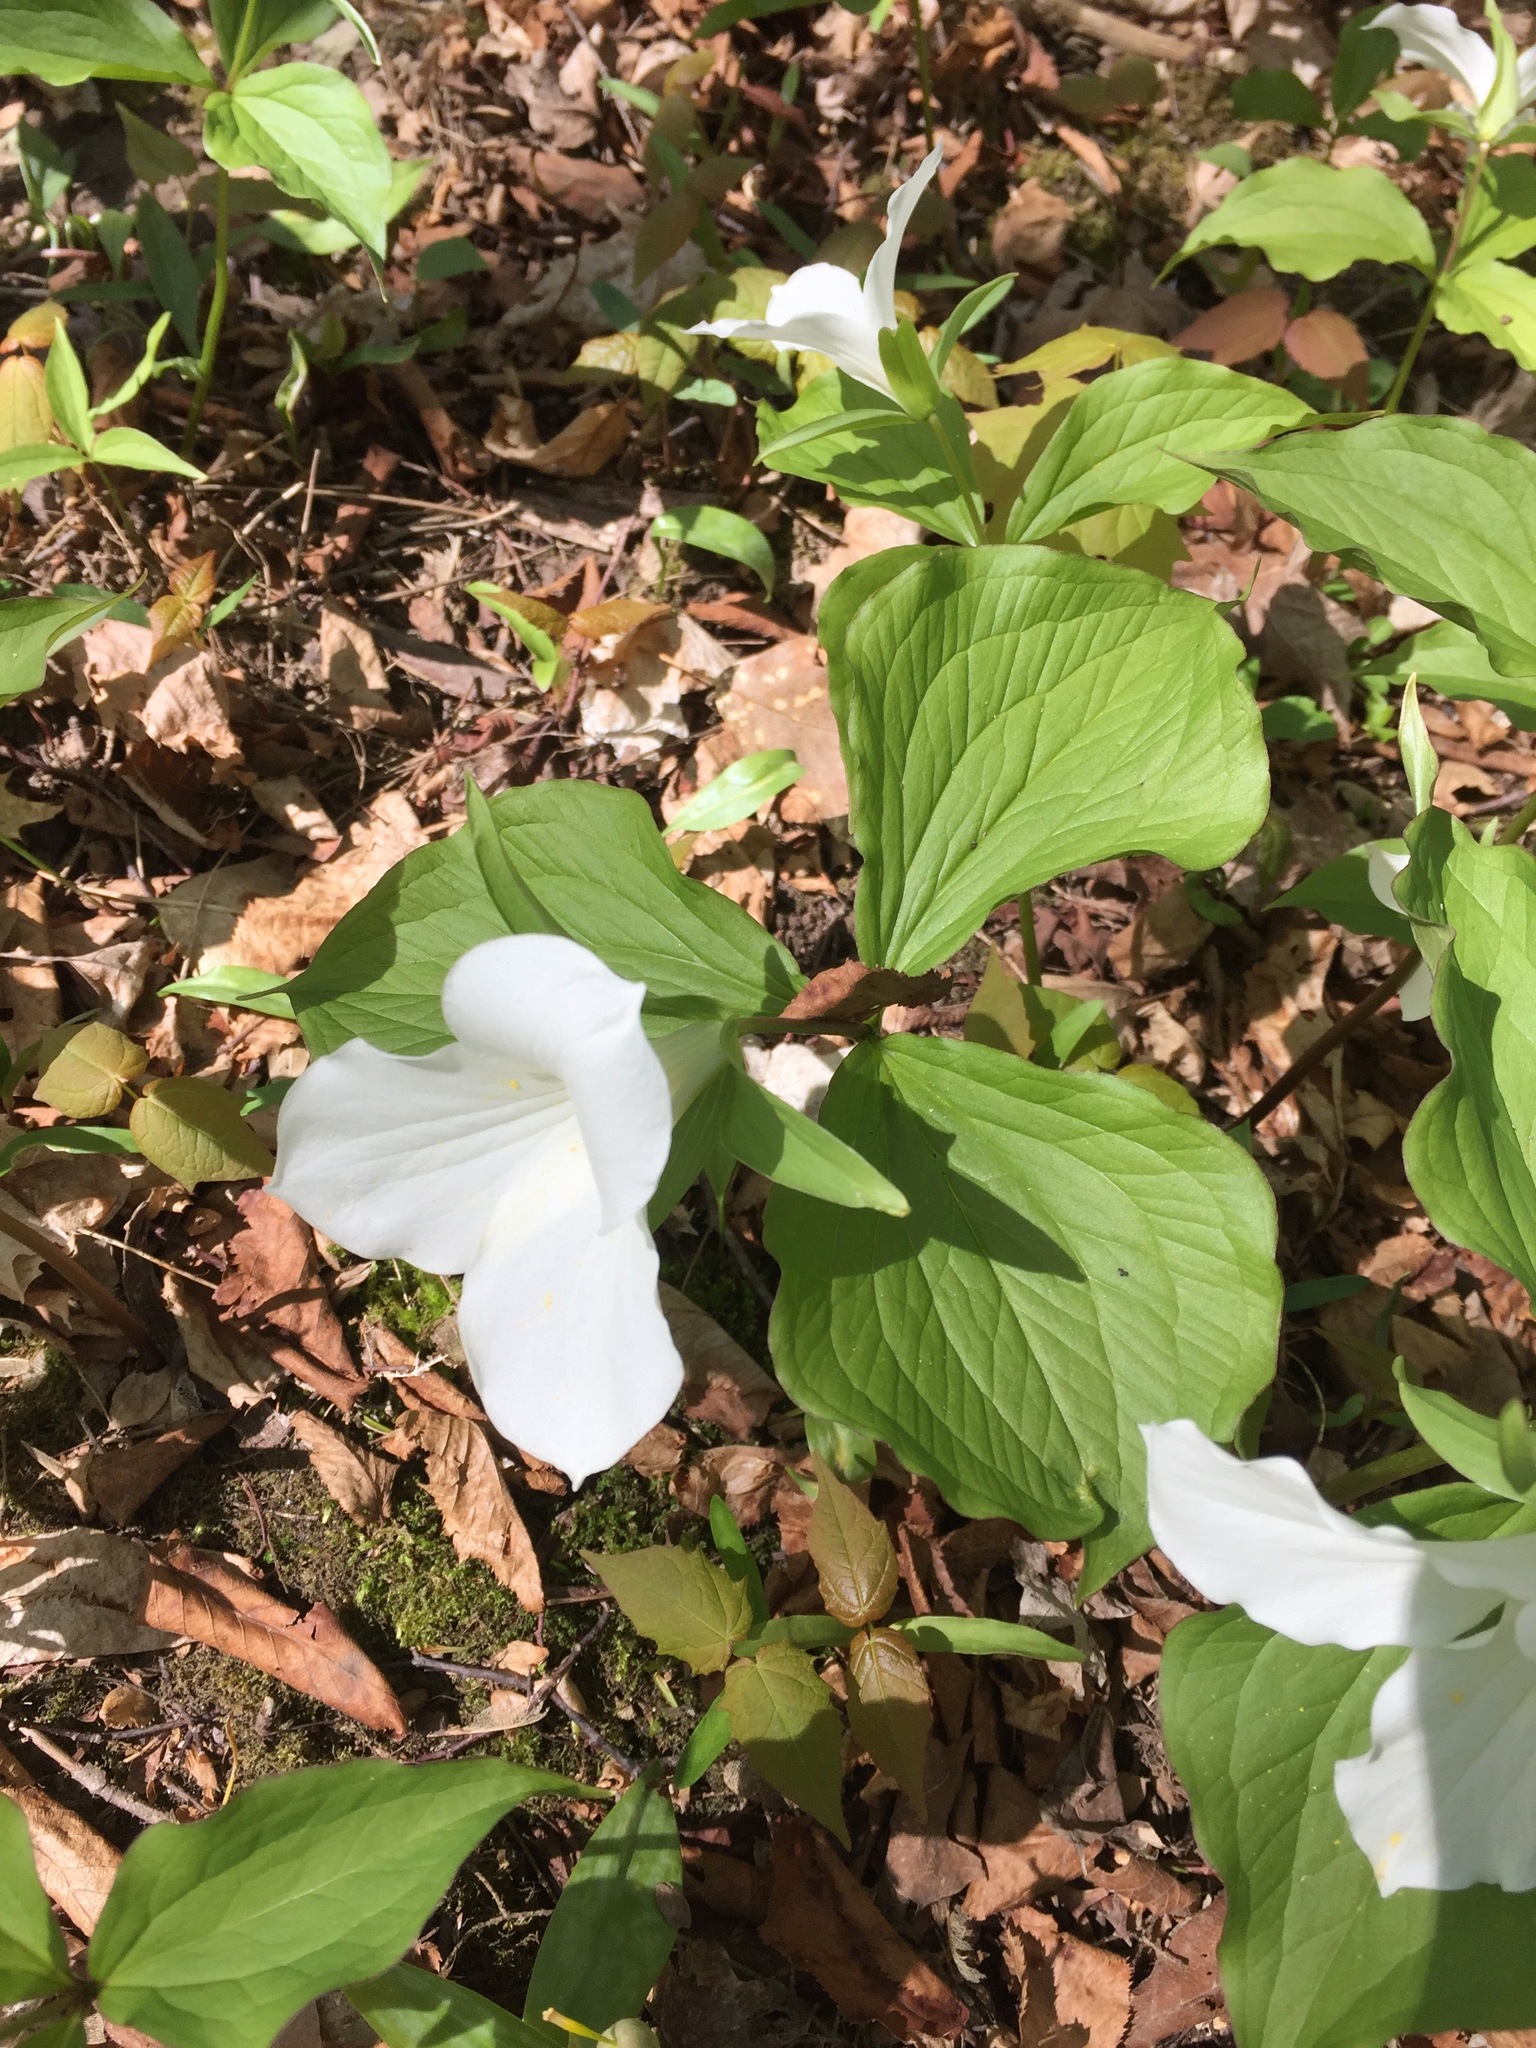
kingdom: Plantae
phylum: Tracheophyta
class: Liliopsida
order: Liliales
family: Melanthiaceae
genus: Trillium
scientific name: Trillium grandiflorum
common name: Great white trillium
